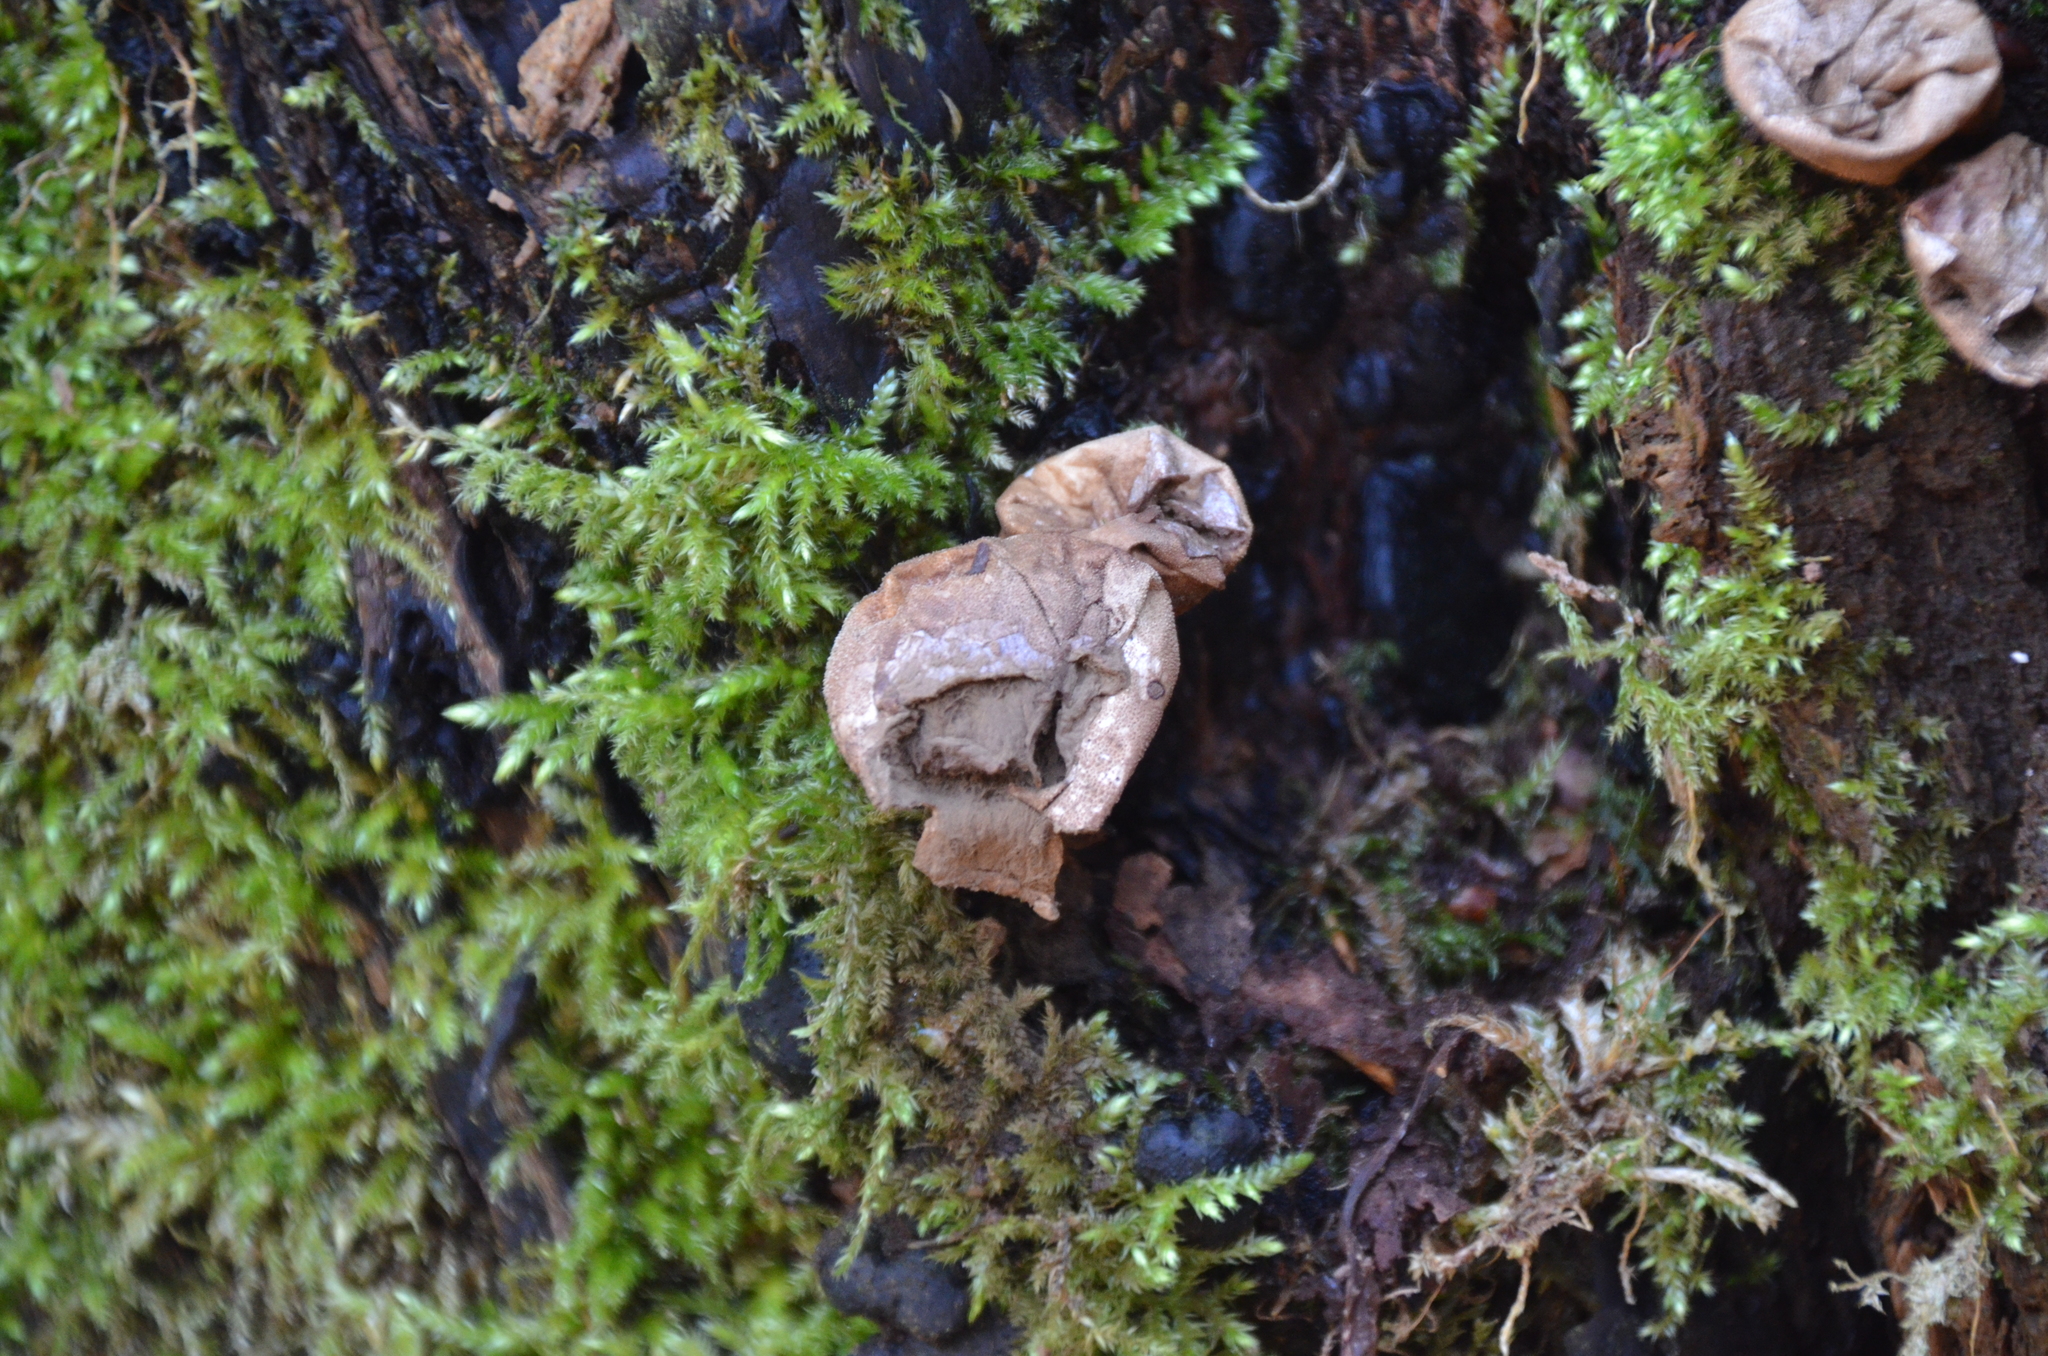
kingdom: Fungi
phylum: Basidiomycota
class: Agaricomycetes
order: Agaricales
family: Lycoperdaceae
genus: Apioperdon
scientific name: Apioperdon pyriforme
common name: Pear-shaped puffball
